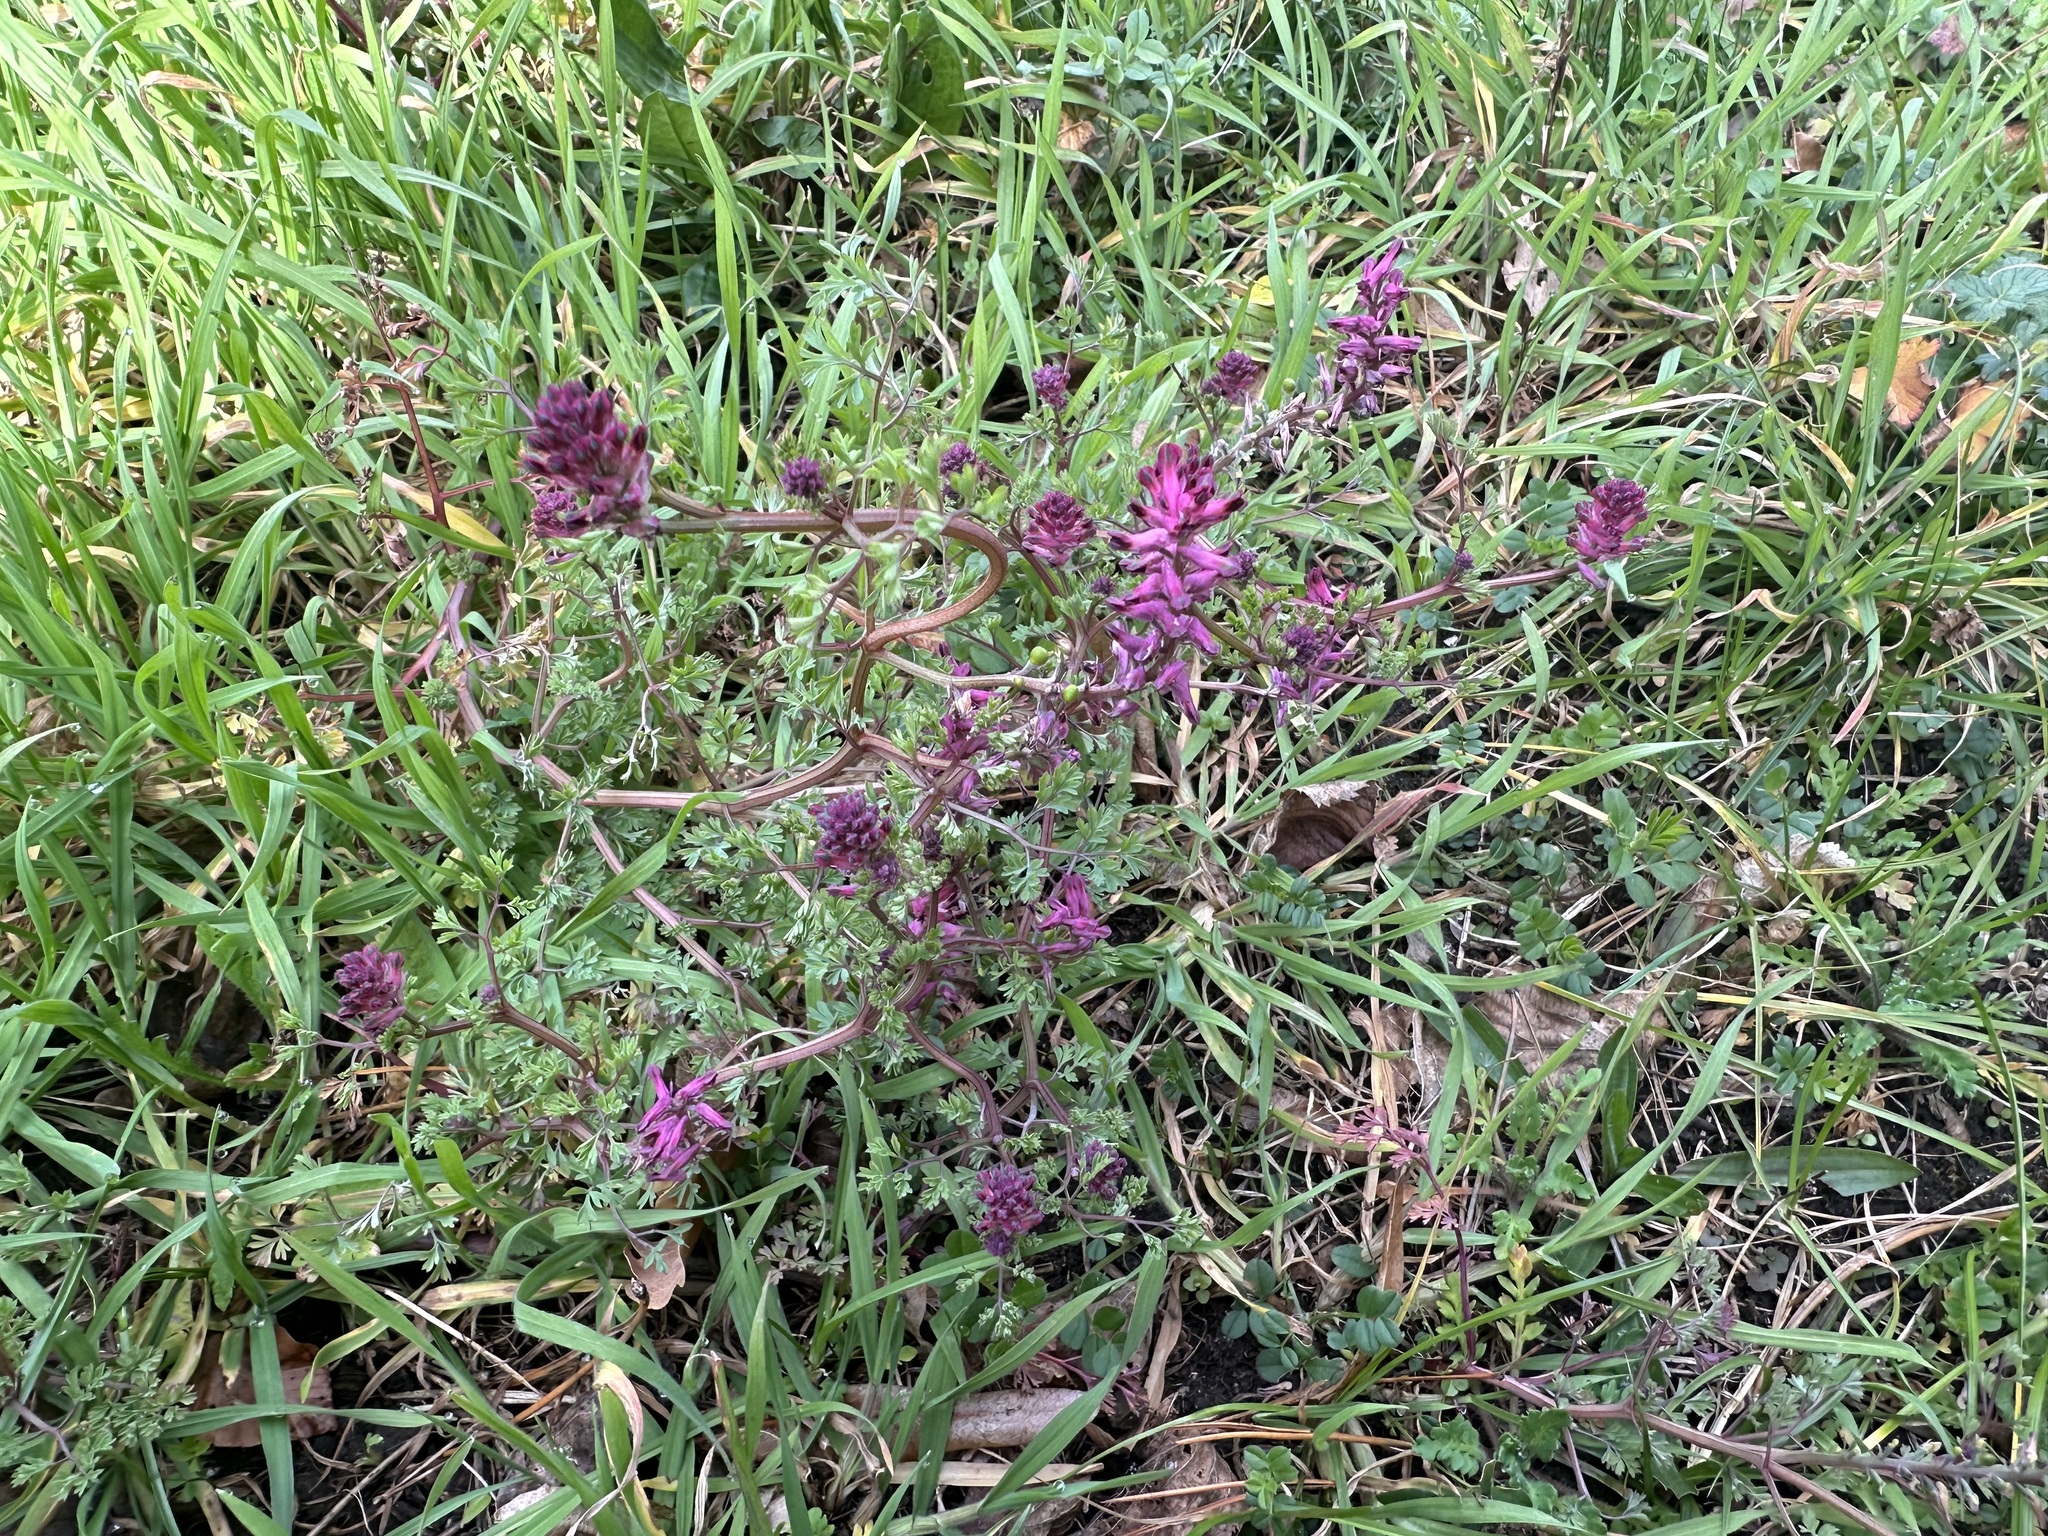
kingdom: Plantae
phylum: Tracheophyta
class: Magnoliopsida
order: Ranunculales
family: Papaveraceae
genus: Fumaria
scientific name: Fumaria officinalis
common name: Common fumitory
